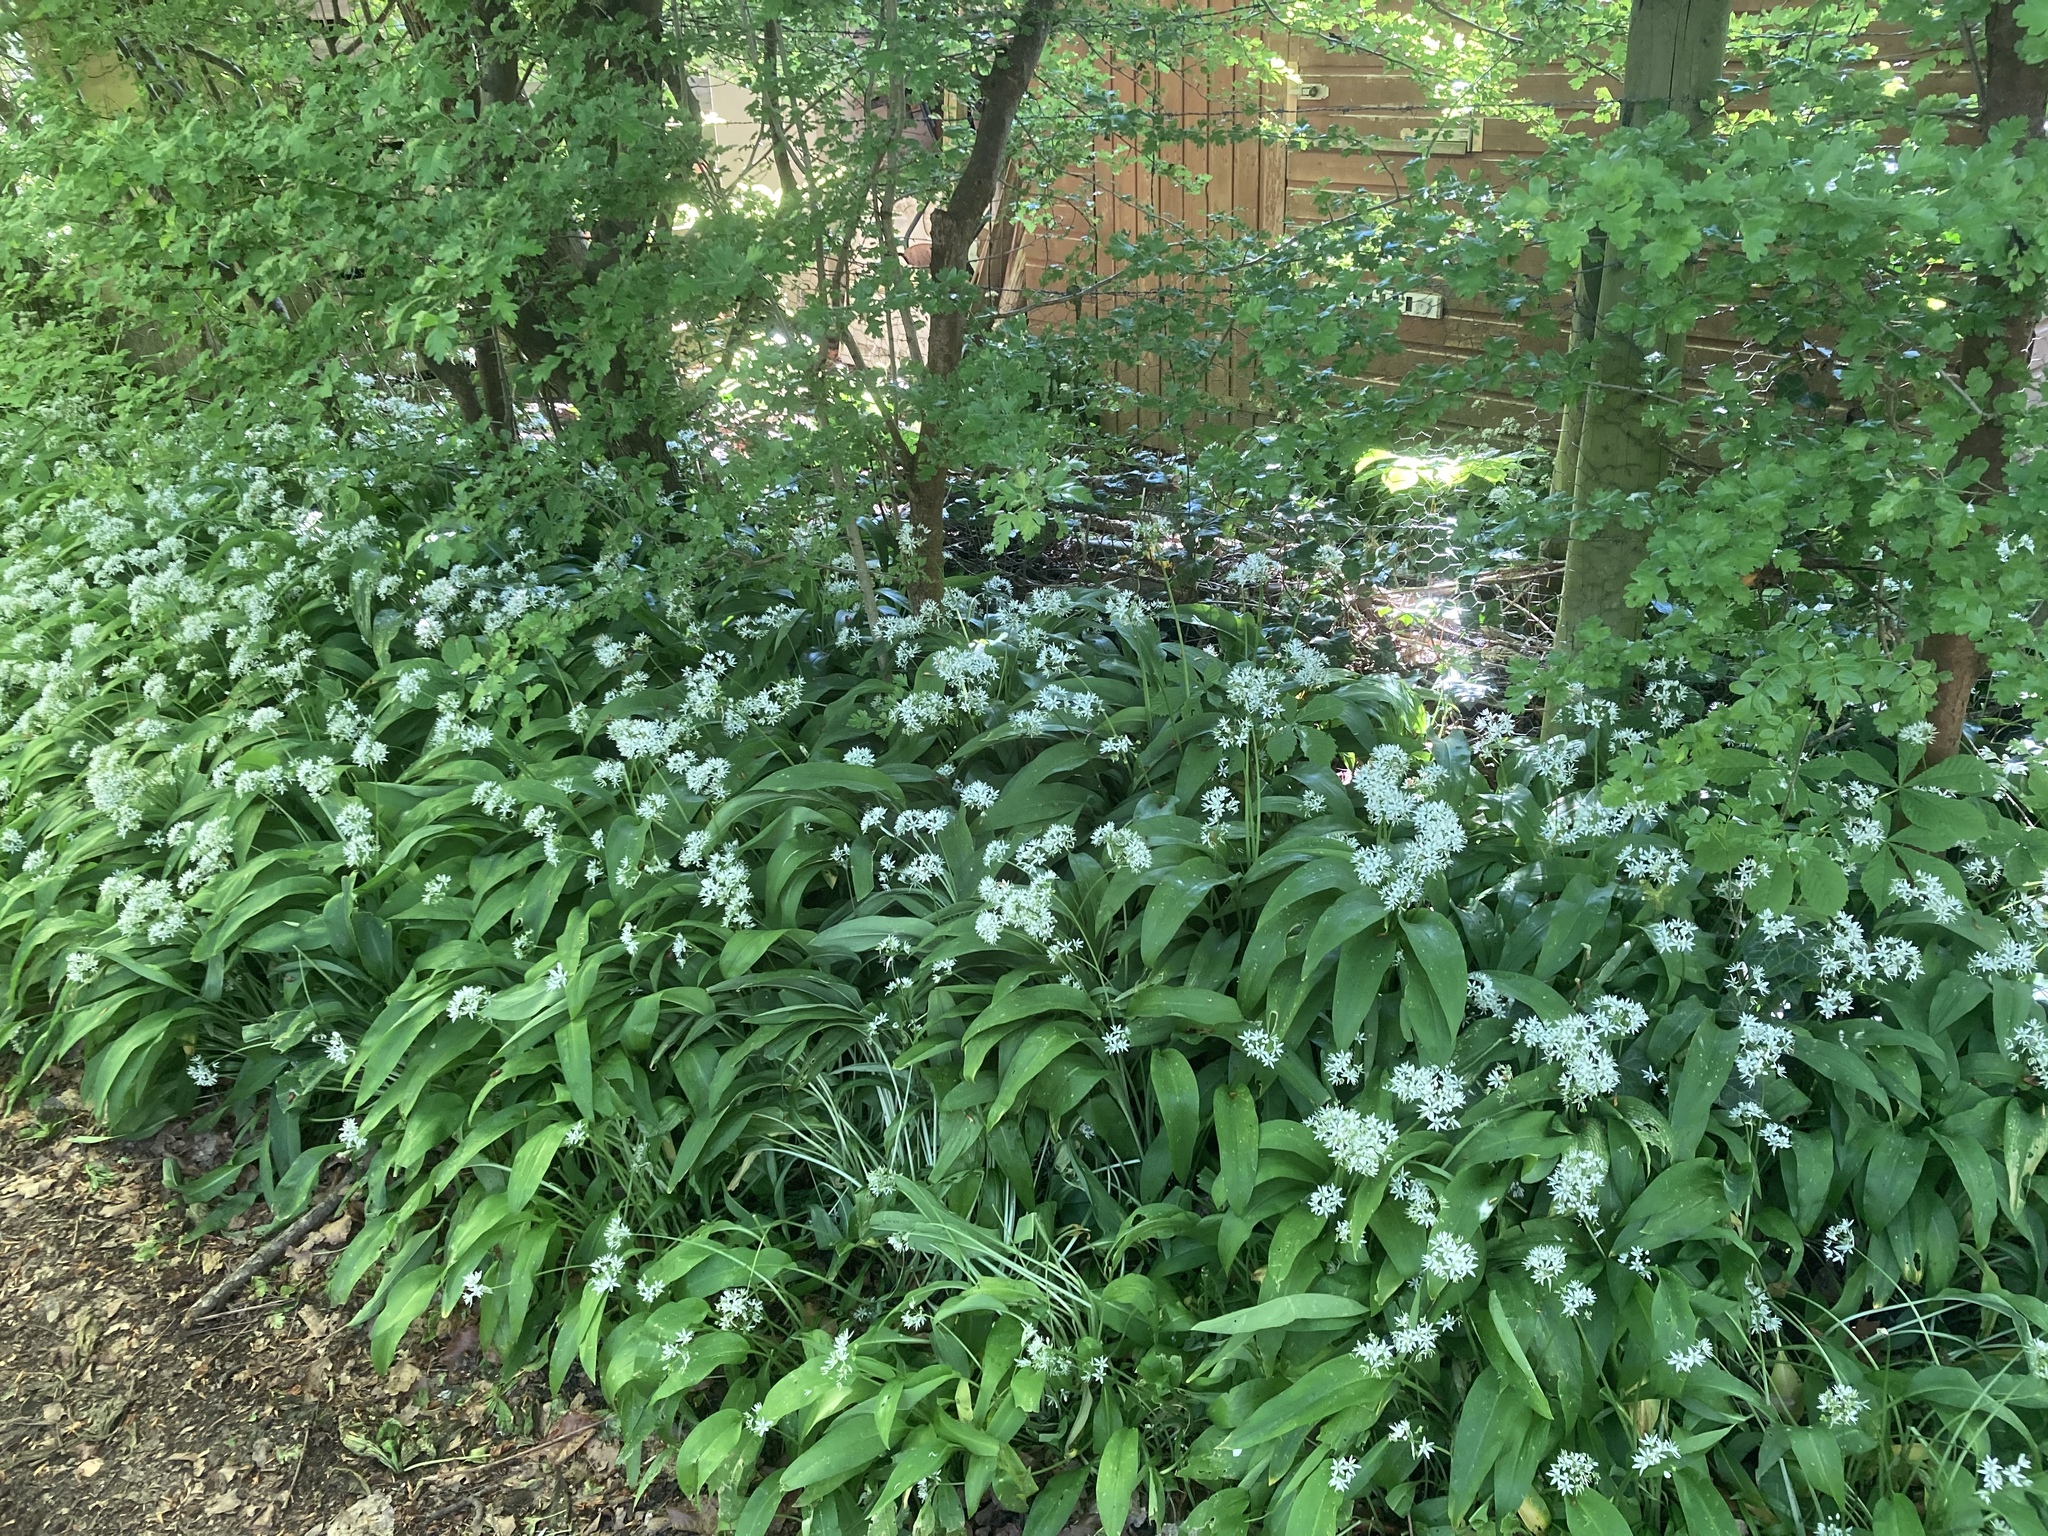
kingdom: Plantae
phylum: Tracheophyta
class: Liliopsida
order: Asparagales
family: Amaryllidaceae
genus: Allium
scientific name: Allium ursinum
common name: Ramsons
